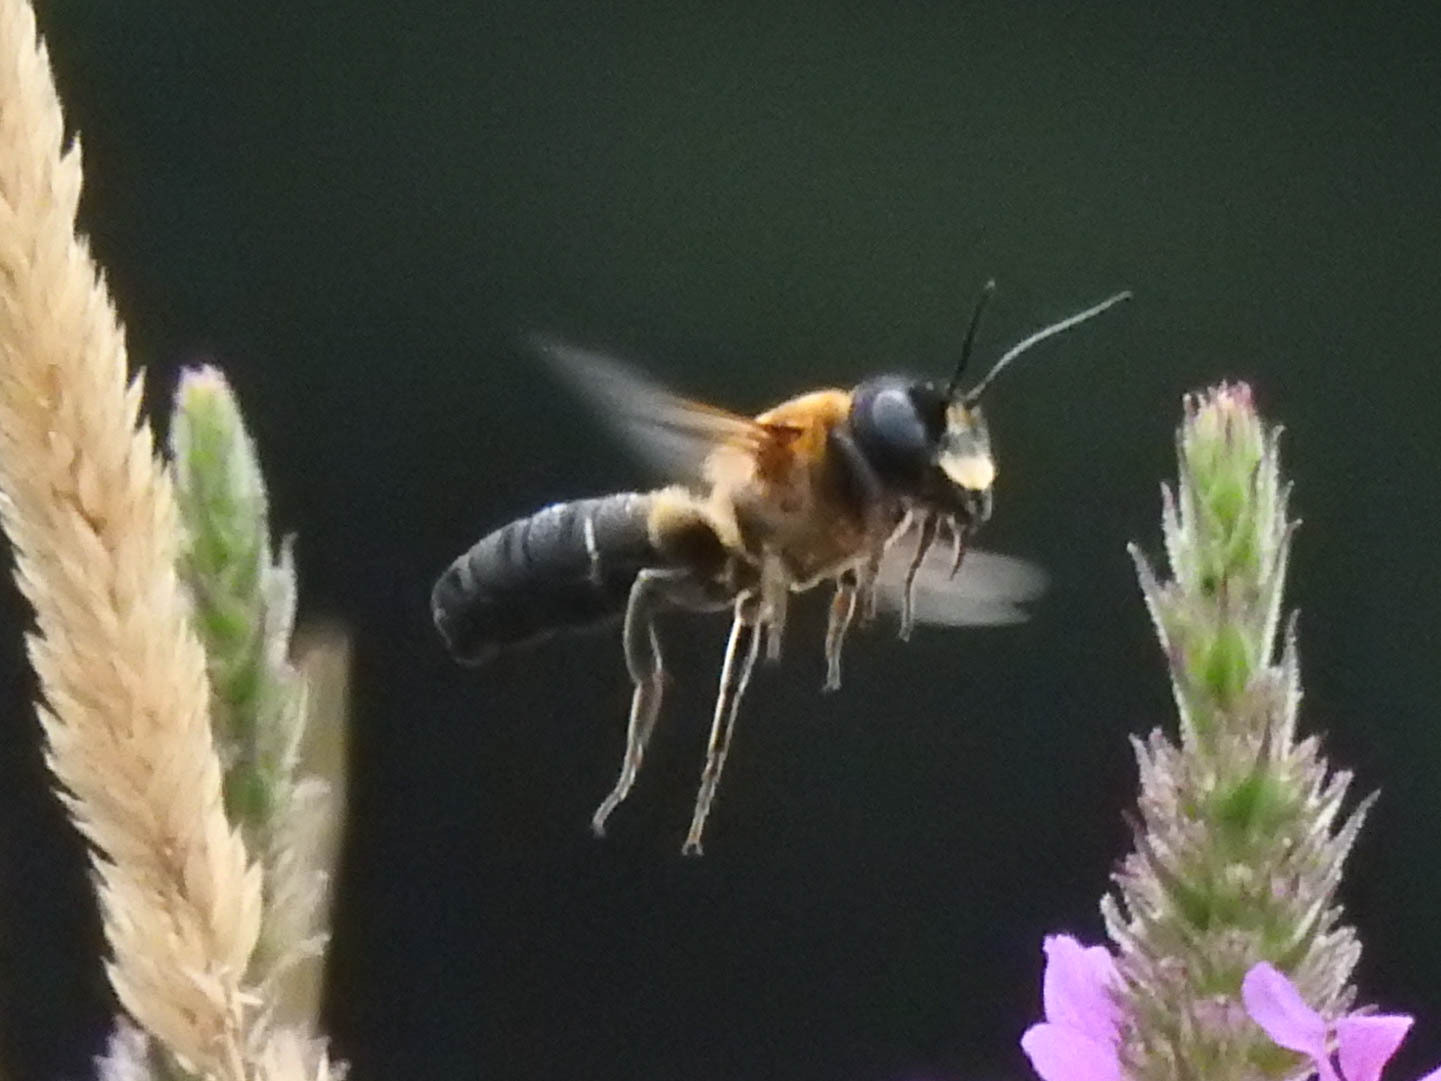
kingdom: Animalia
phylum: Arthropoda
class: Insecta
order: Hymenoptera
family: Megachilidae
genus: Megachile
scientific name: Megachile sculpturalis
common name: Sculptured resin bee
